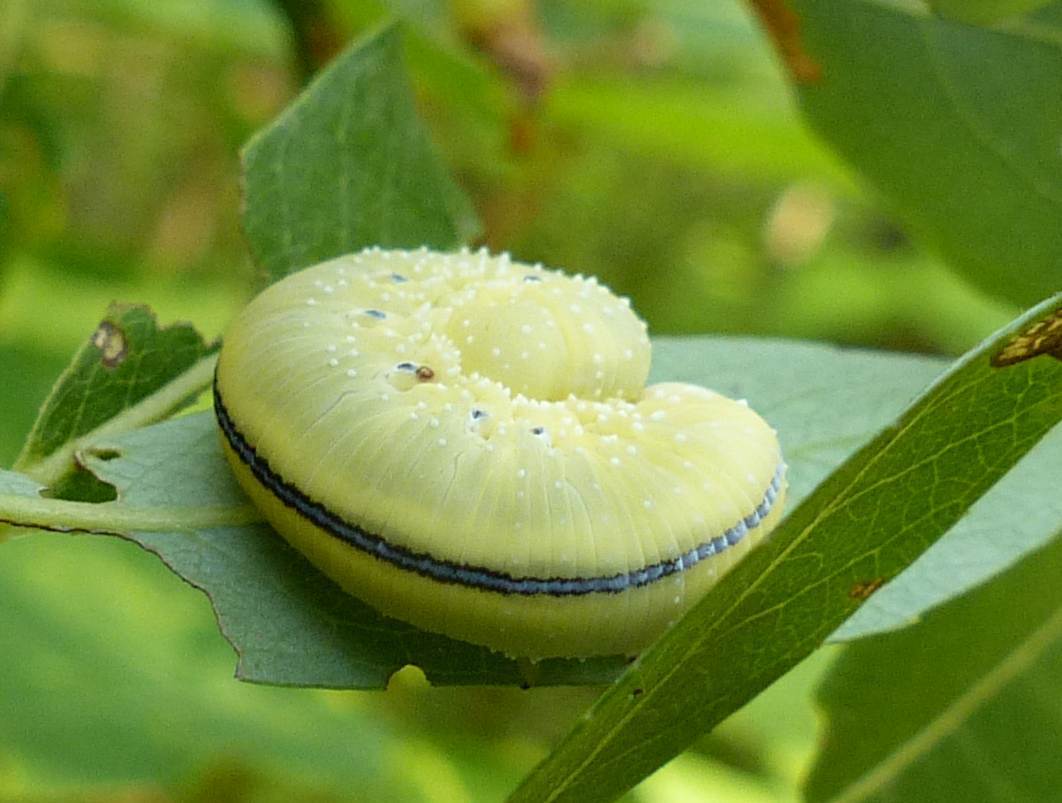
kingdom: Animalia
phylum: Arthropoda
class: Insecta
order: Hymenoptera
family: Cimbicidae
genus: Cimbex
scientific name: Cimbex americana
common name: Elm sawfly
